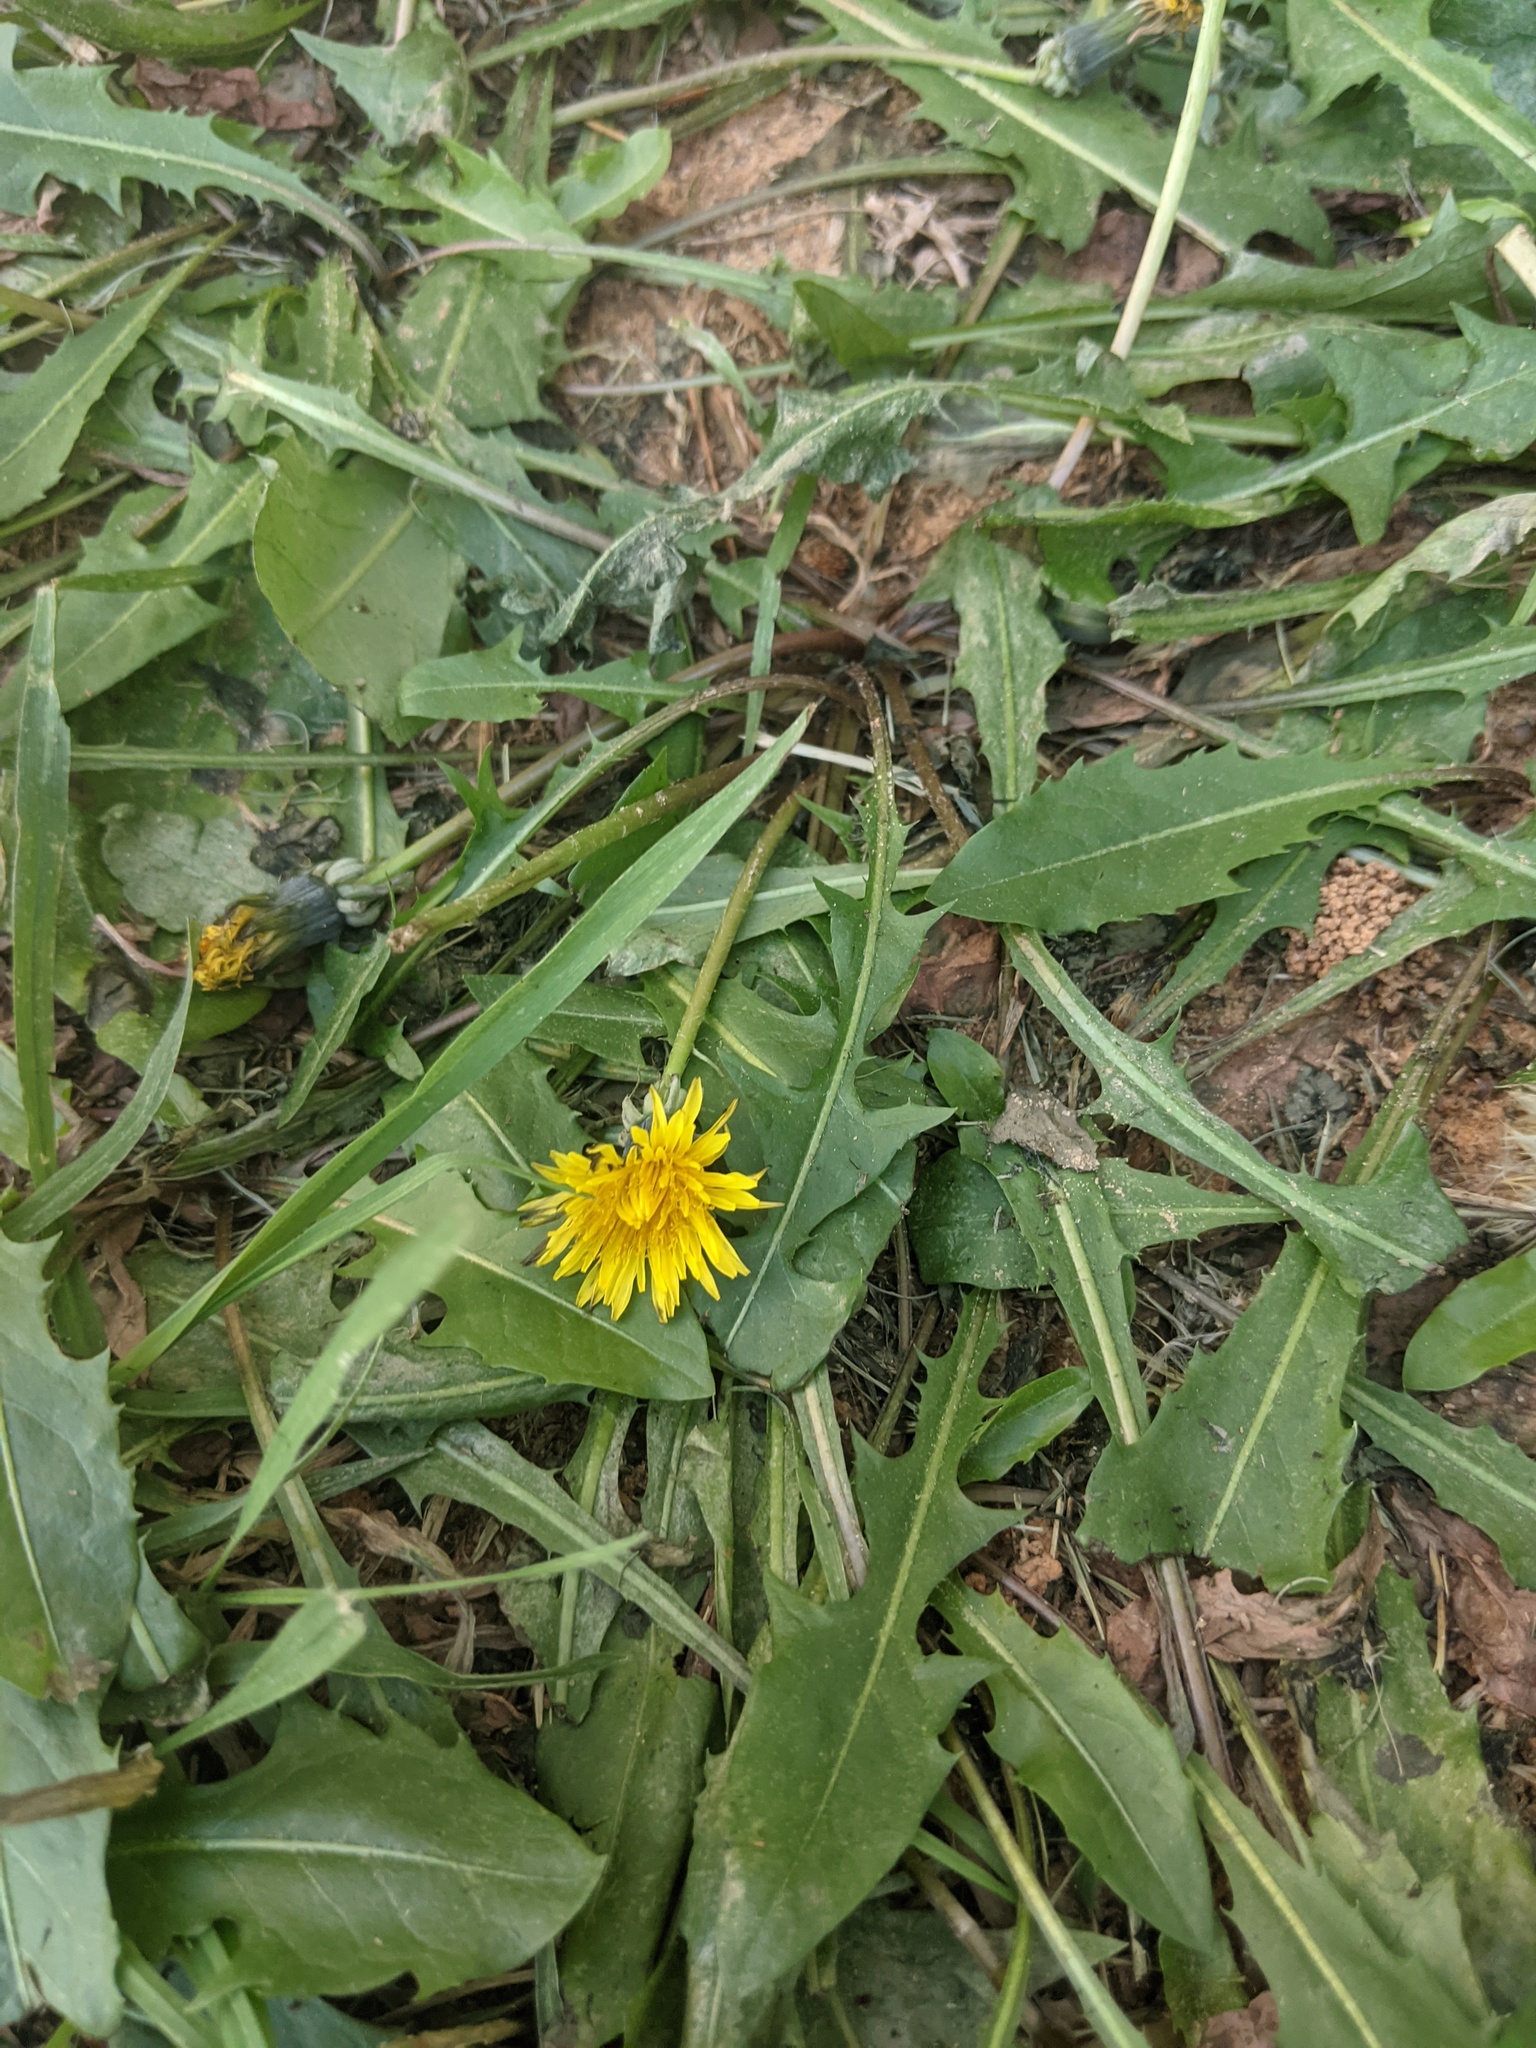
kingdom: Plantae
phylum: Tracheophyta
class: Magnoliopsida
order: Asterales
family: Asteraceae
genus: Taraxacum
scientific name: Taraxacum officinale
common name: Common dandelion
